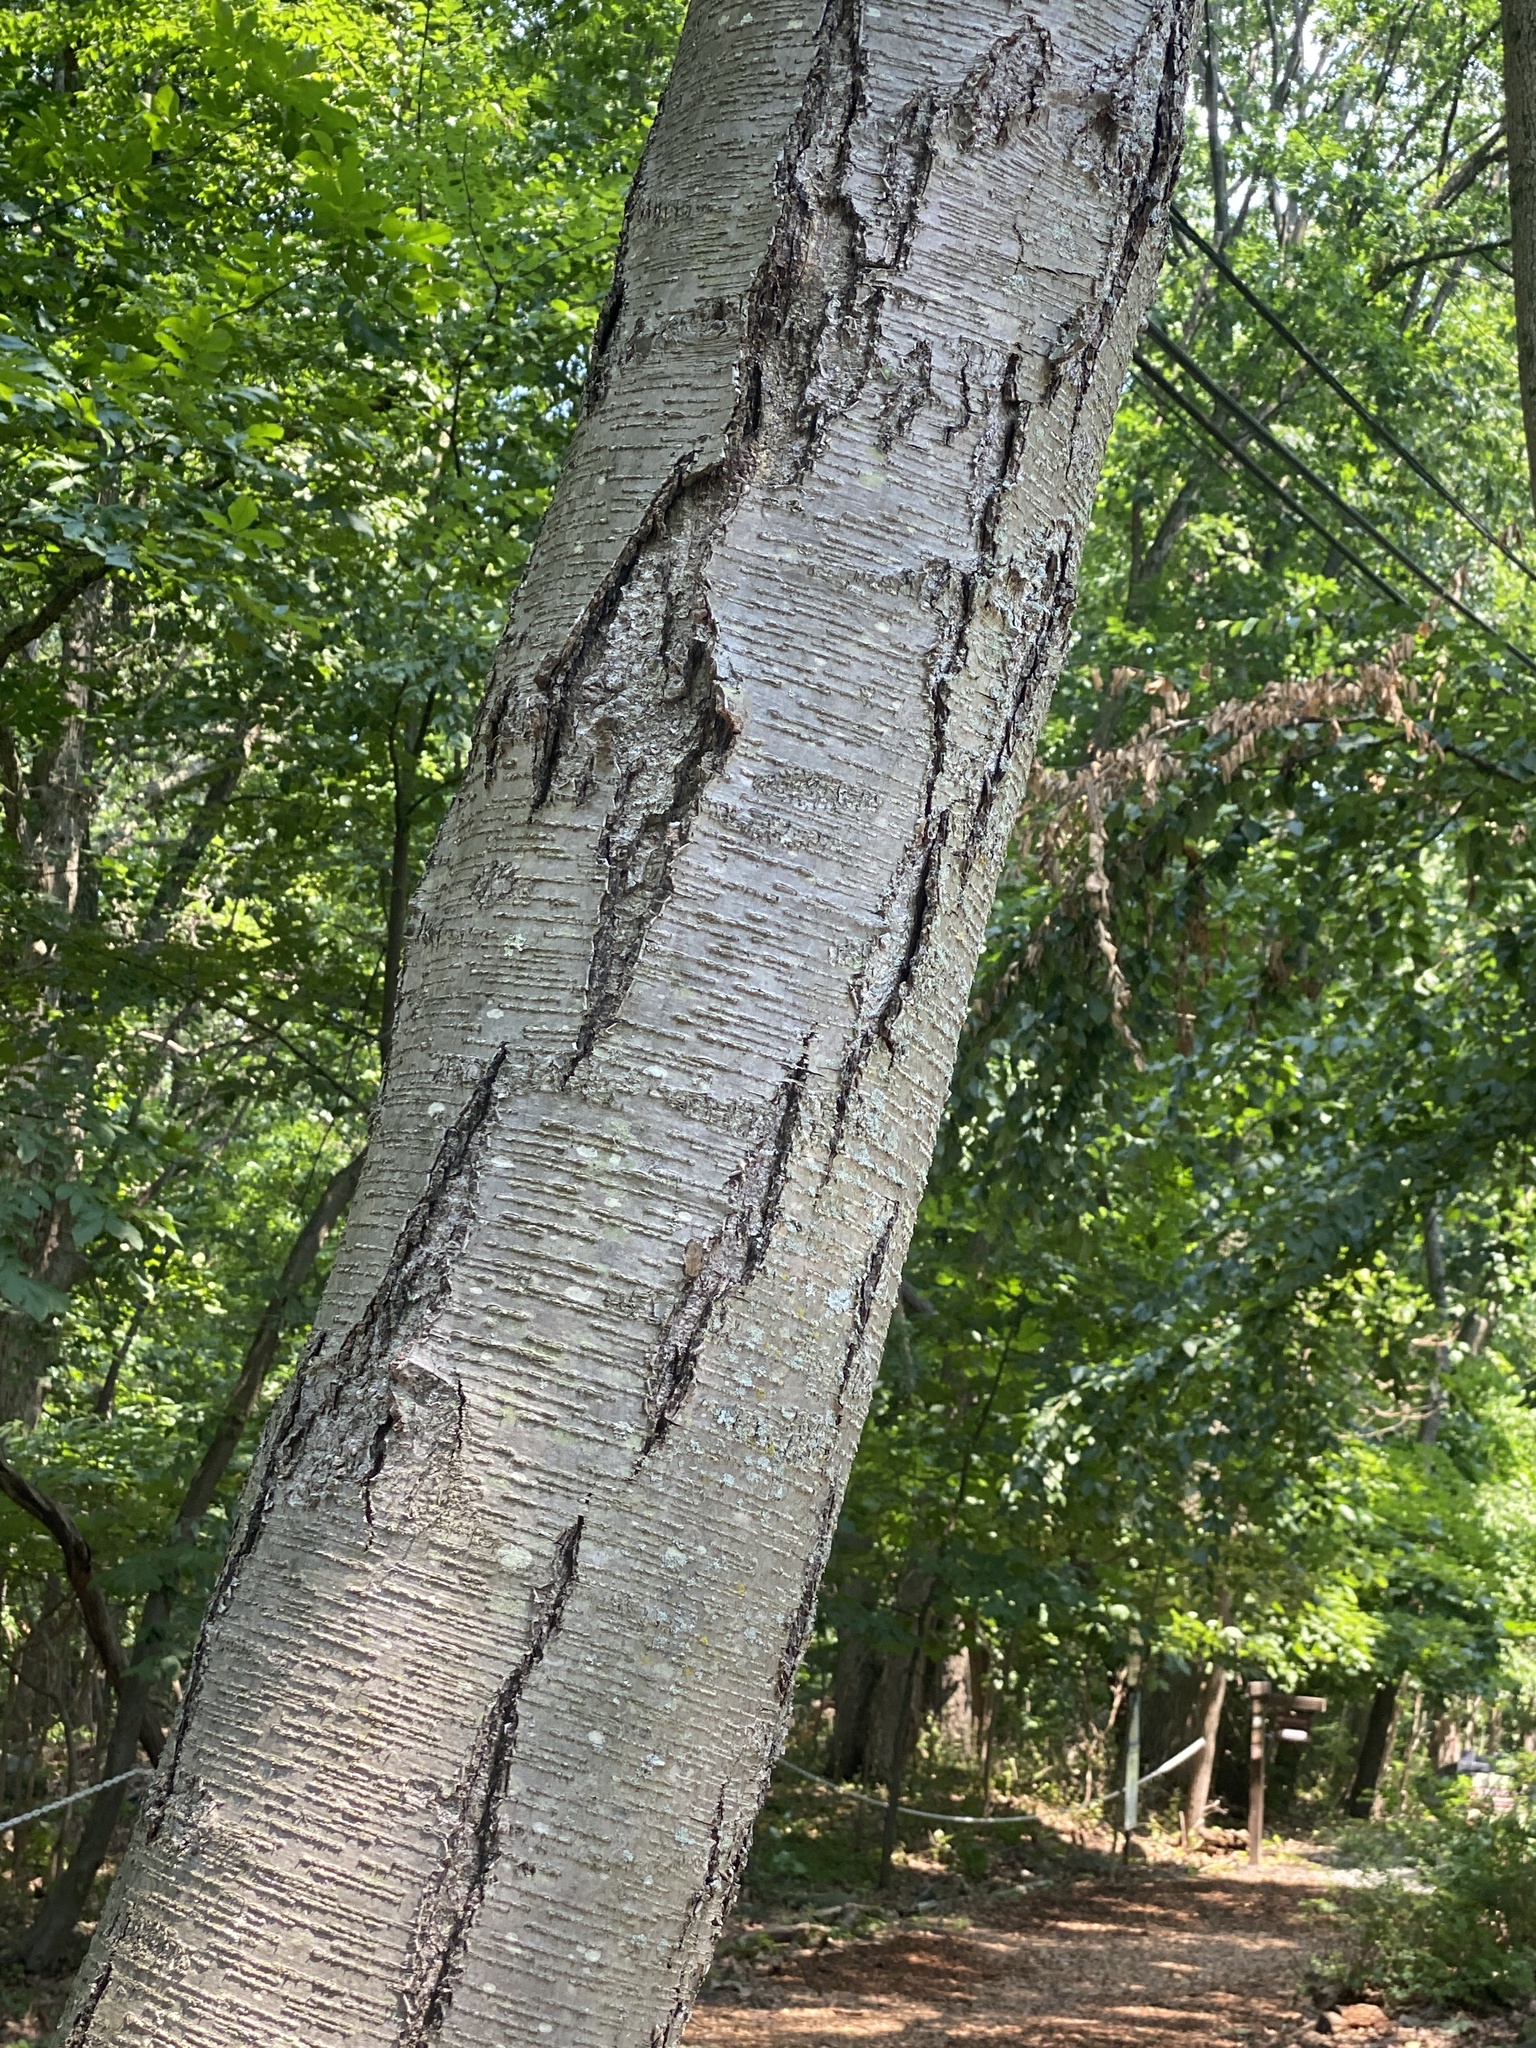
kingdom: Plantae
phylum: Tracheophyta
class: Magnoliopsida
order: Fagales
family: Betulaceae
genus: Betula
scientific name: Betula lenta
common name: Black birch
